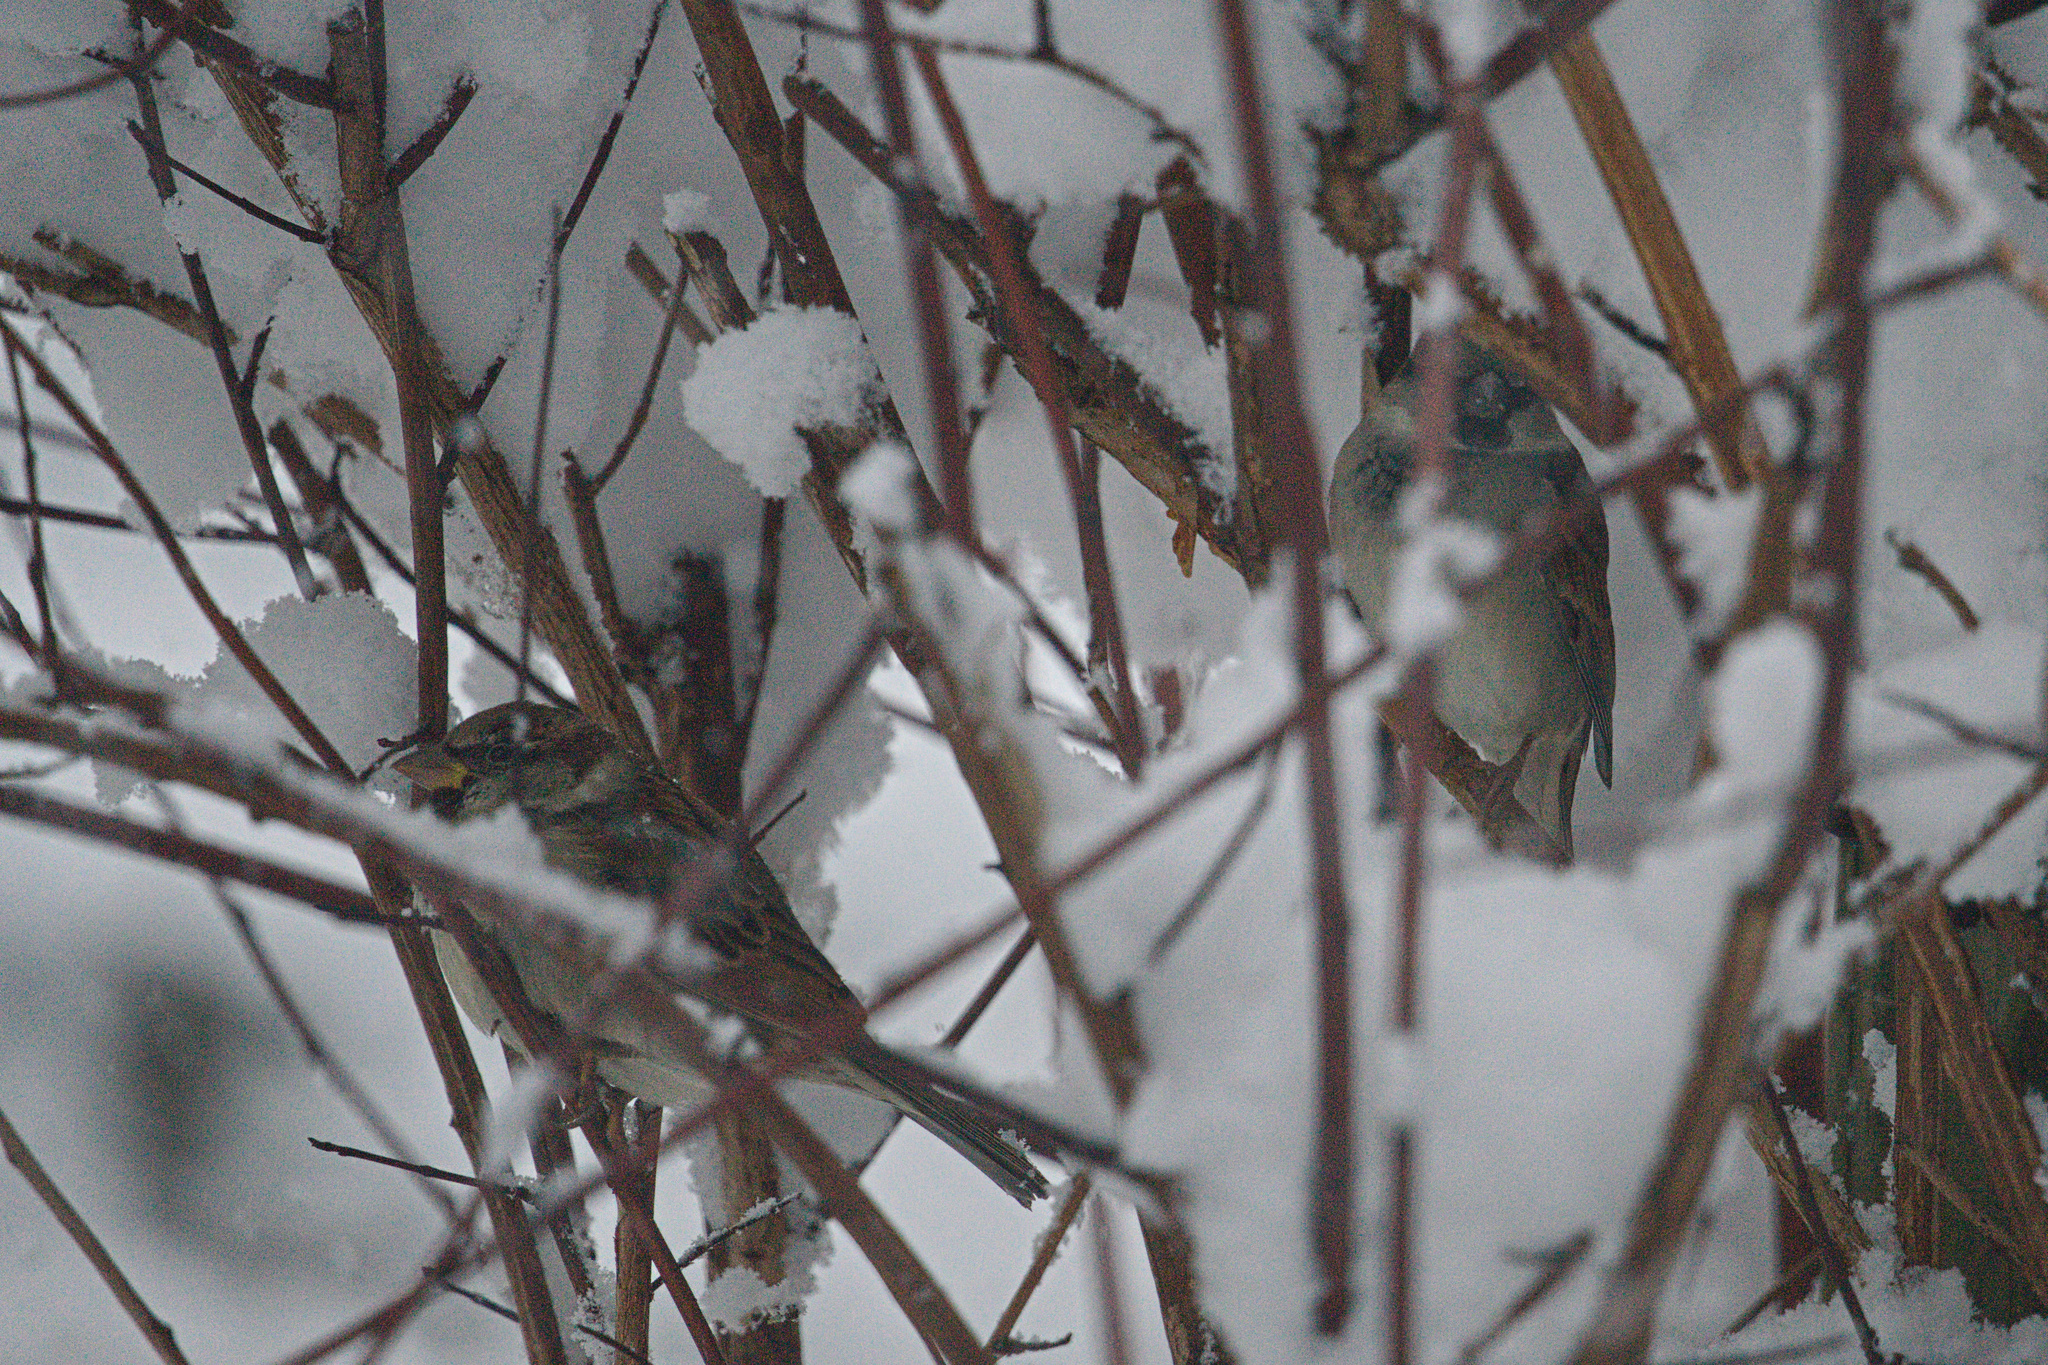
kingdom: Animalia
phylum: Chordata
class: Aves
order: Passeriformes
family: Passeridae
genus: Passer
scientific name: Passer domesticus
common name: House sparrow
